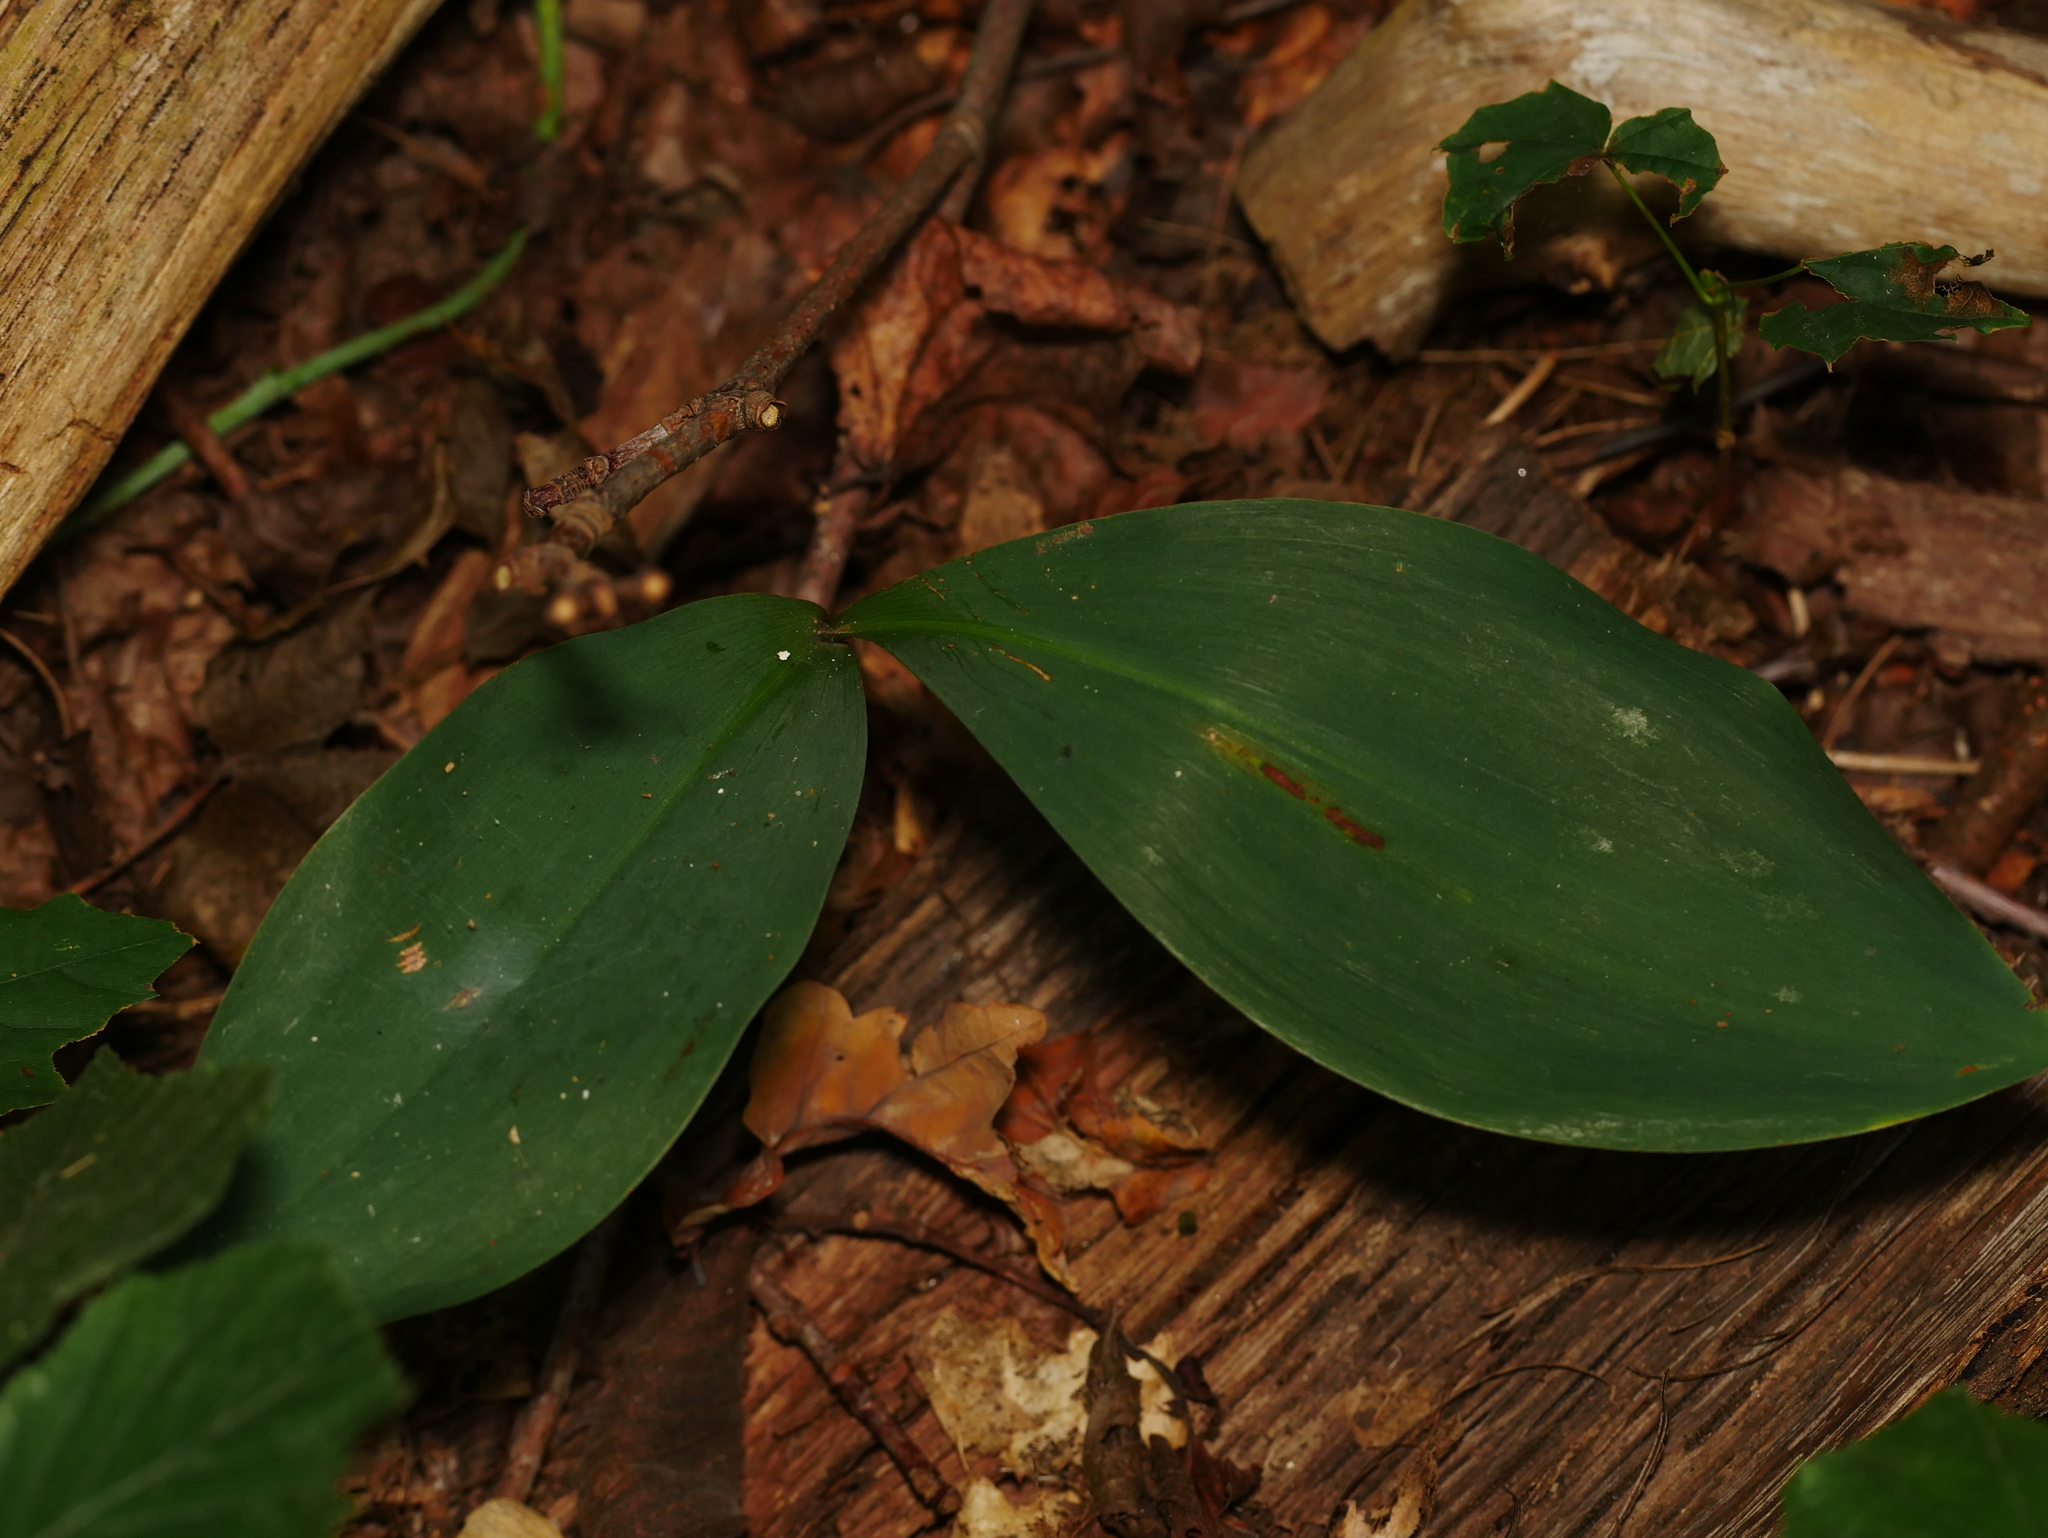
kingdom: Plantae
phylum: Tracheophyta
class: Liliopsida
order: Asparagales
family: Asparagaceae
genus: Convallaria
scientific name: Convallaria majalis
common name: Lily-of-the-valley
